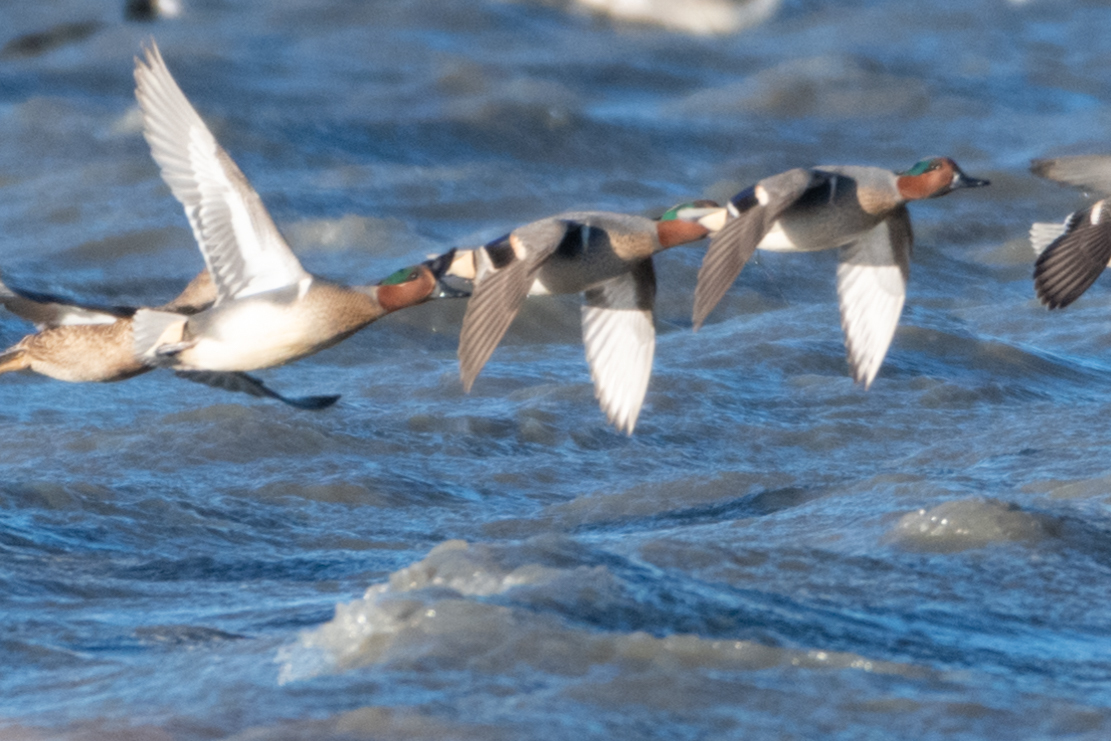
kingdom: Animalia
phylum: Chordata
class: Aves
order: Anseriformes
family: Anatidae
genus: Anas
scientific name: Anas crecca
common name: Eurasian teal
